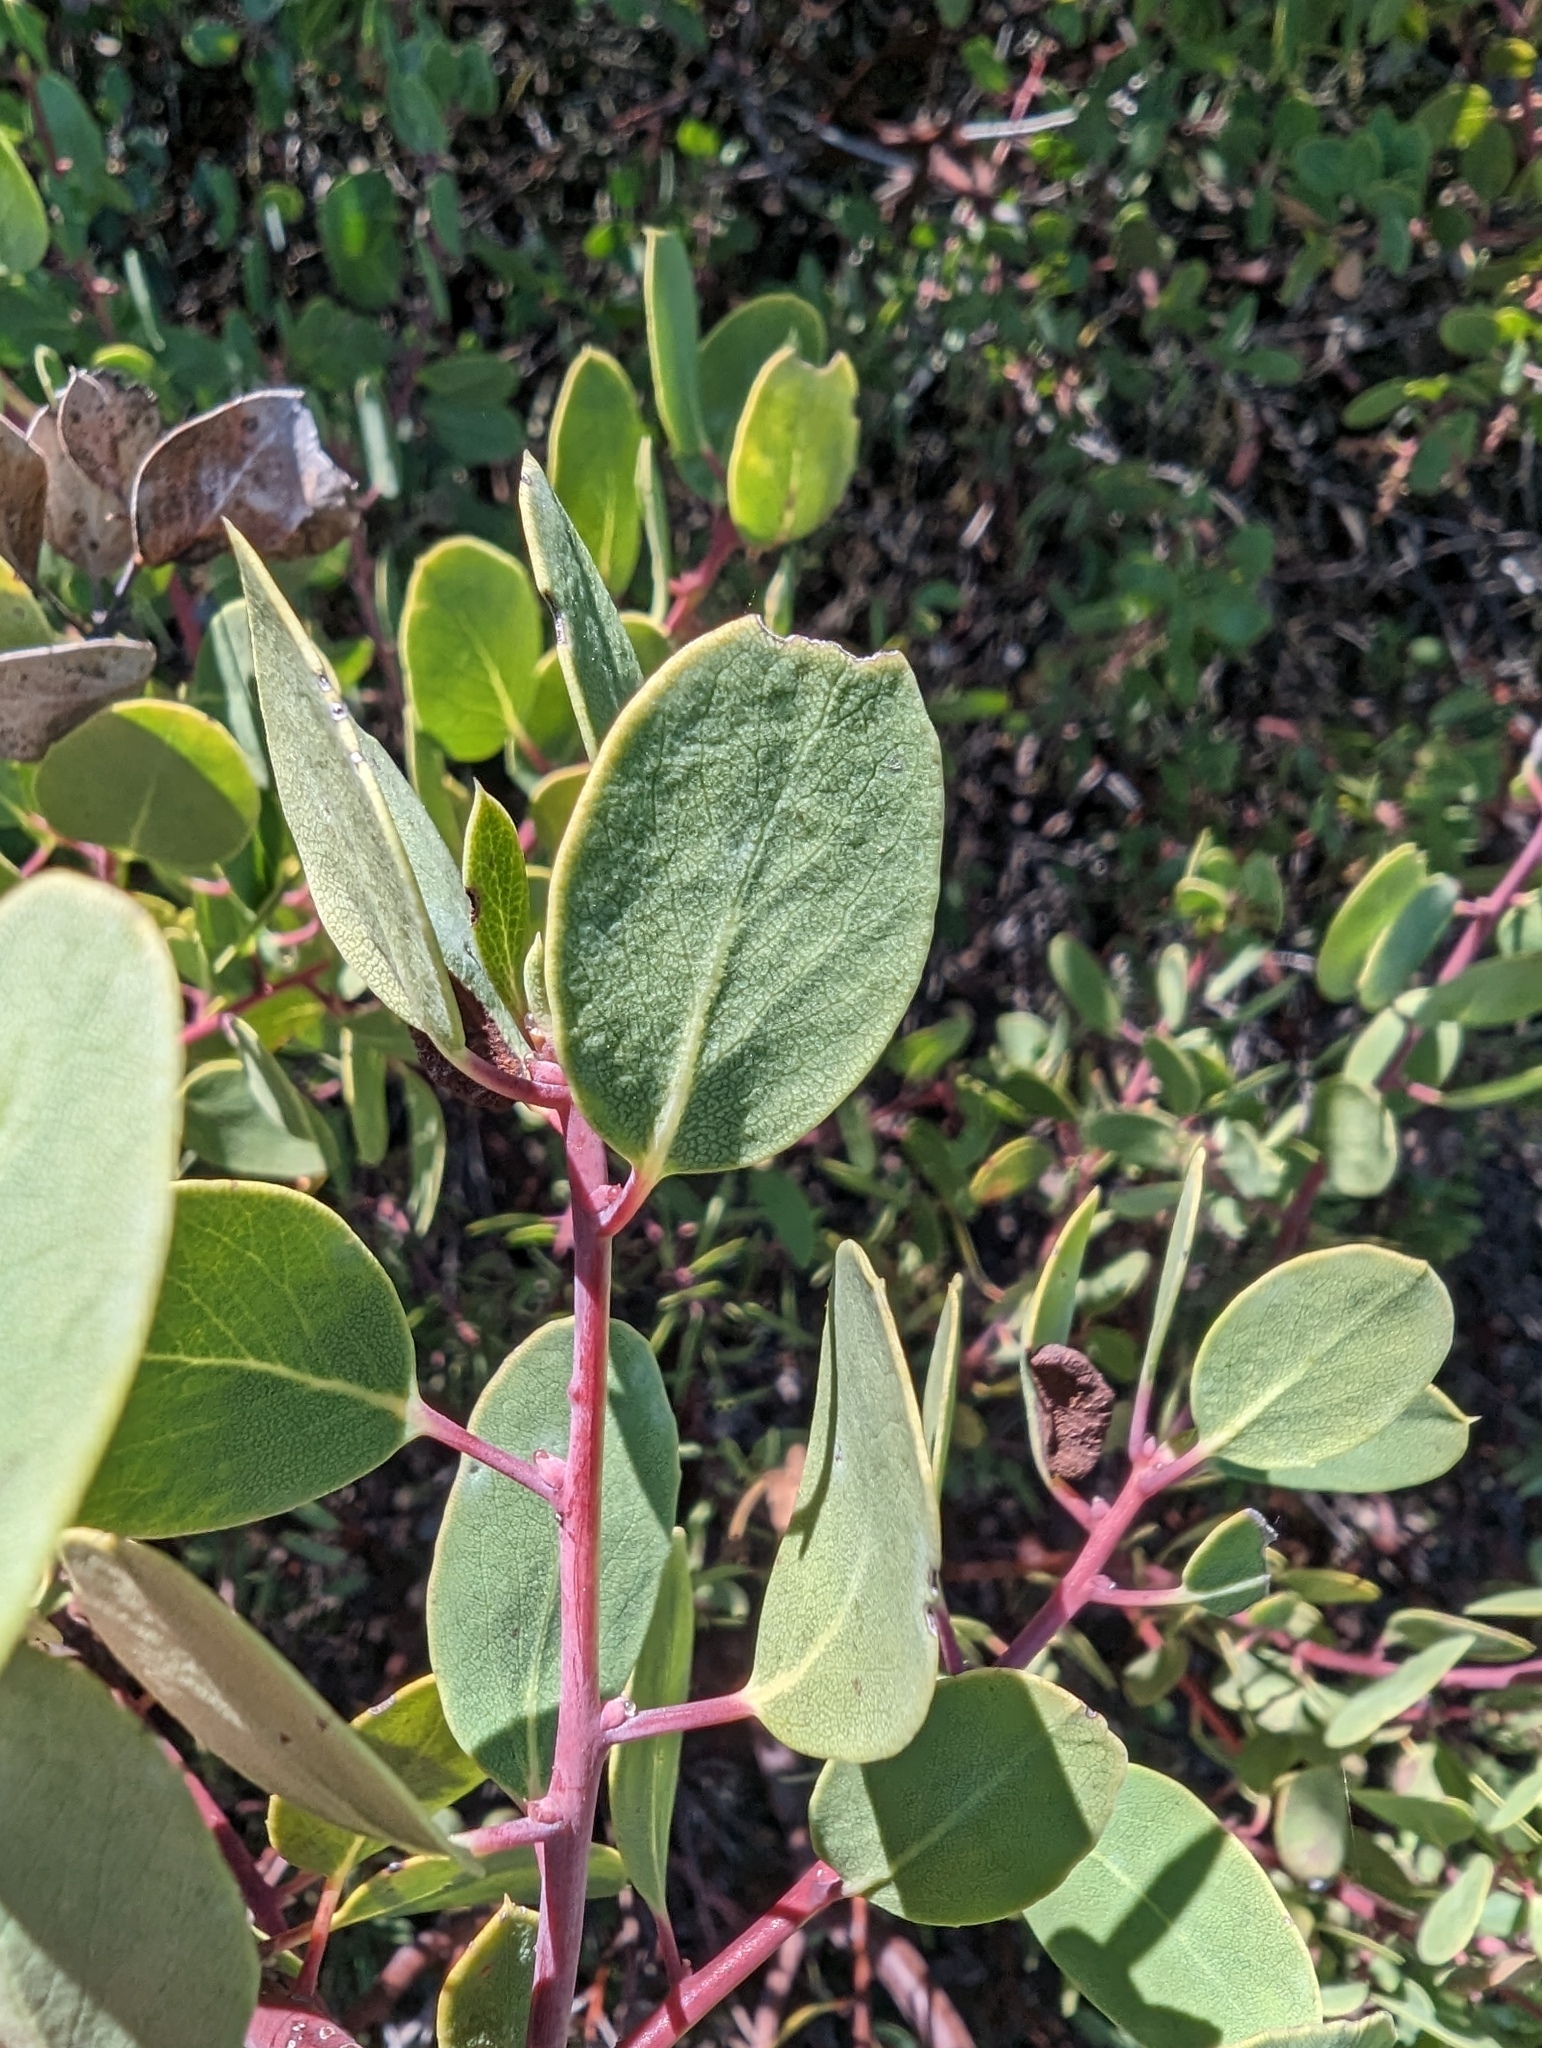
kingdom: Plantae
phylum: Tracheophyta
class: Magnoliopsida
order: Ericales
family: Ericaceae
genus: Arctostaphylos
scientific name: Arctostaphylos glauca
